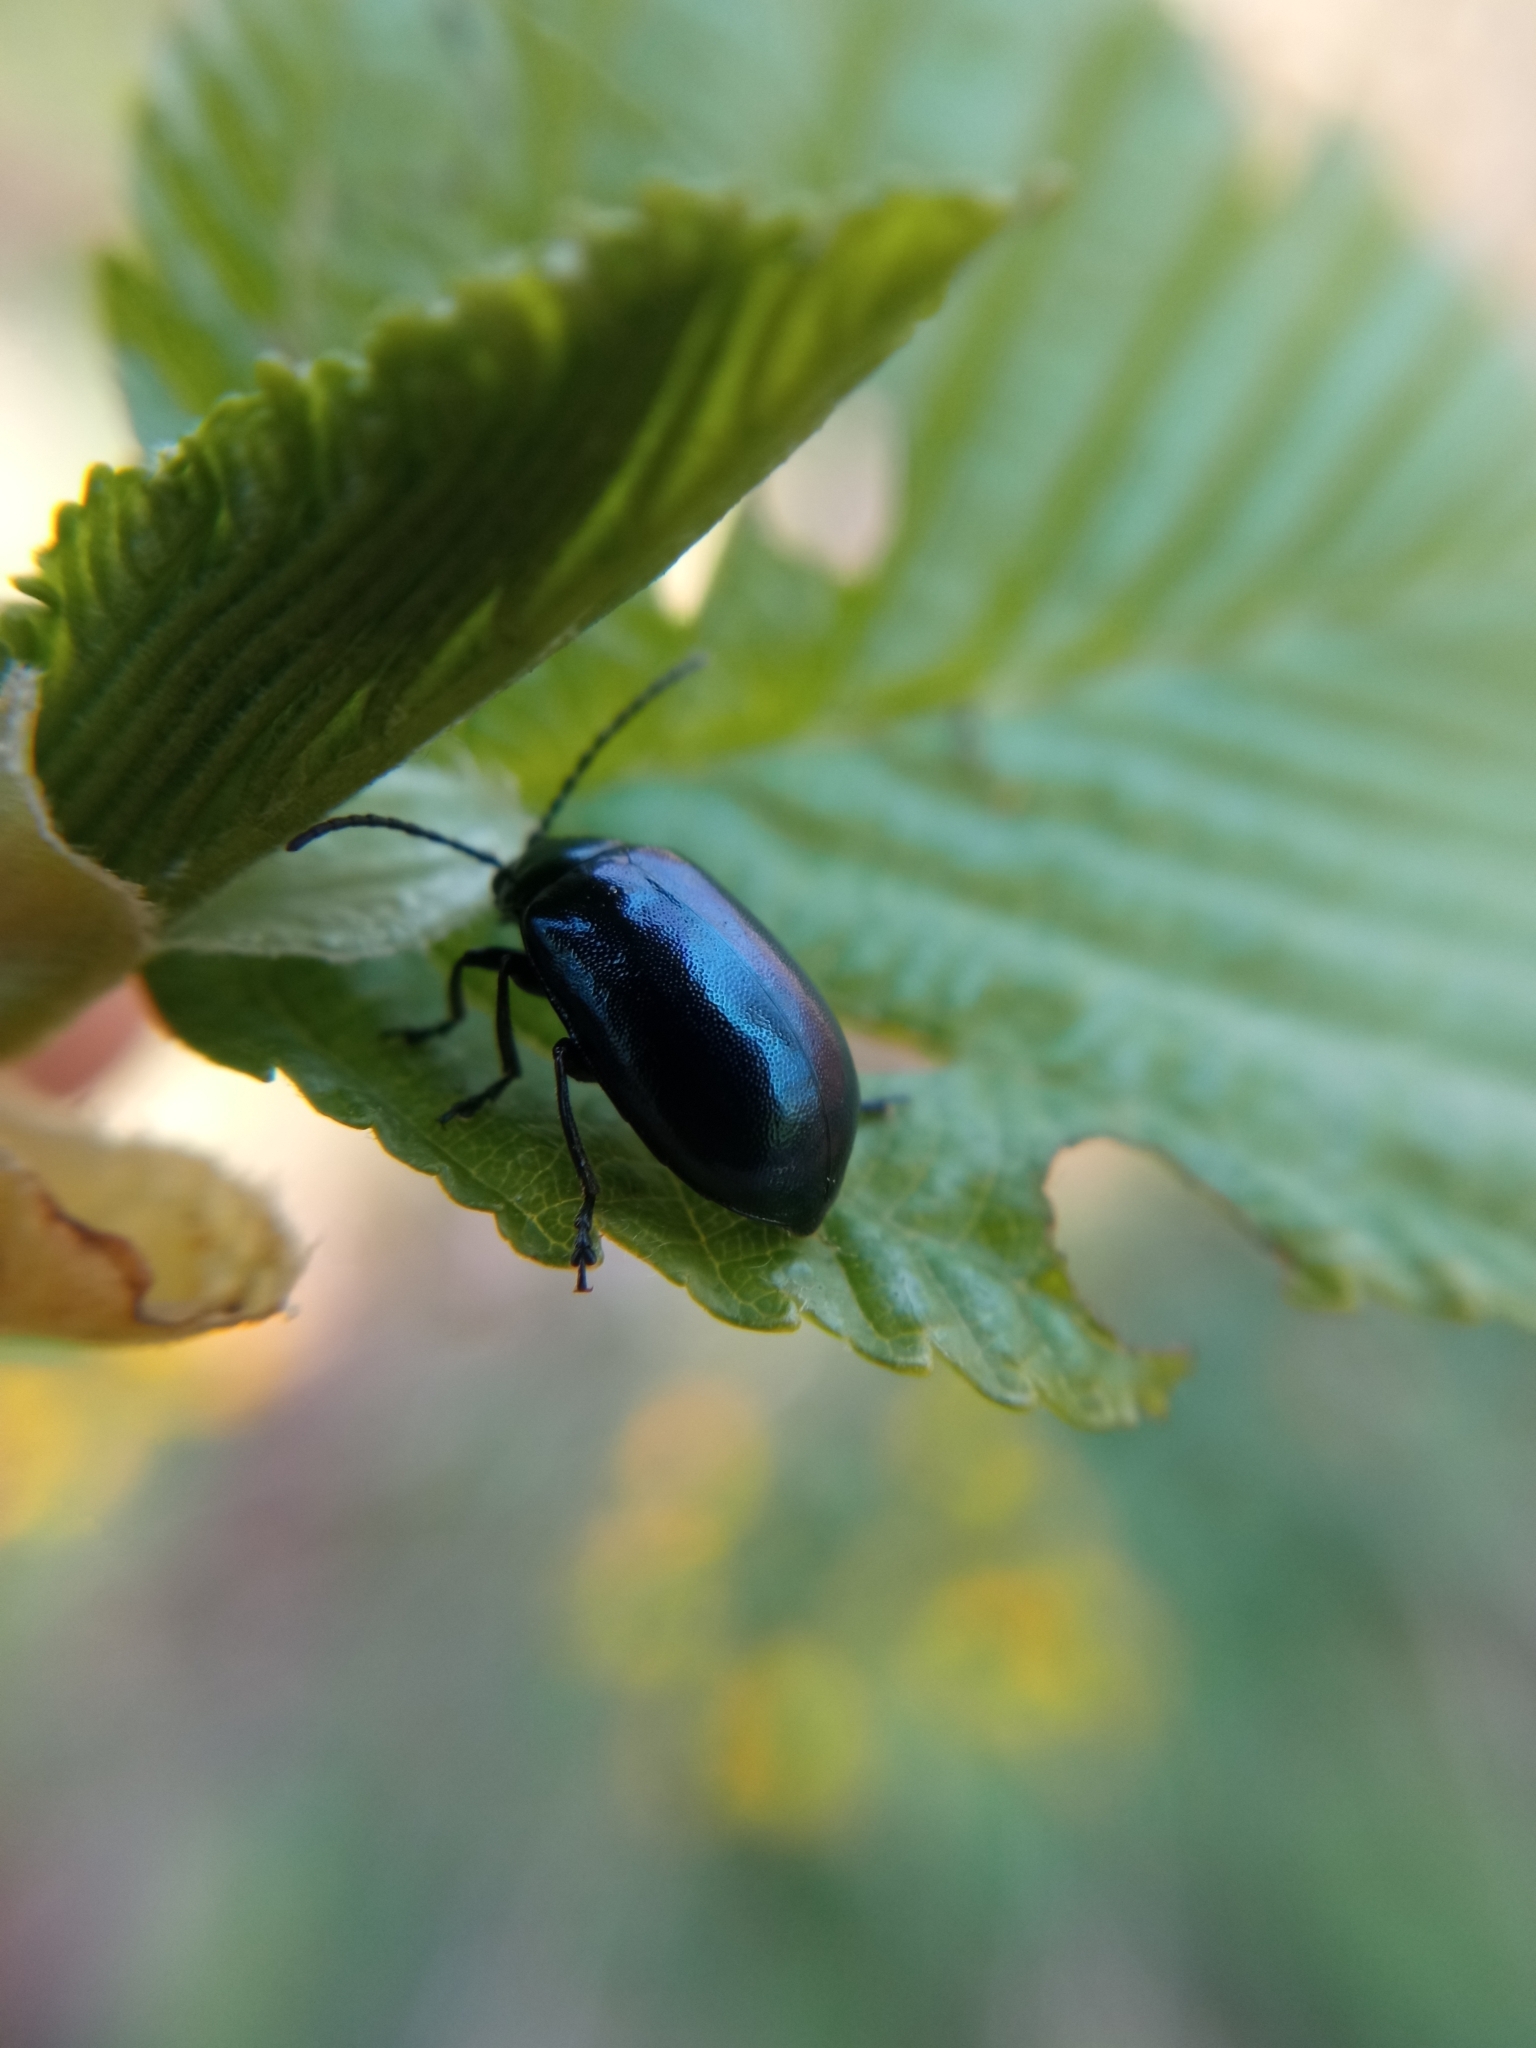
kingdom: Animalia
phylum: Arthropoda
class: Insecta
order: Coleoptera
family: Chrysomelidae
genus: Agelastica
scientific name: Agelastica alni
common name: Alder leaf beetle
